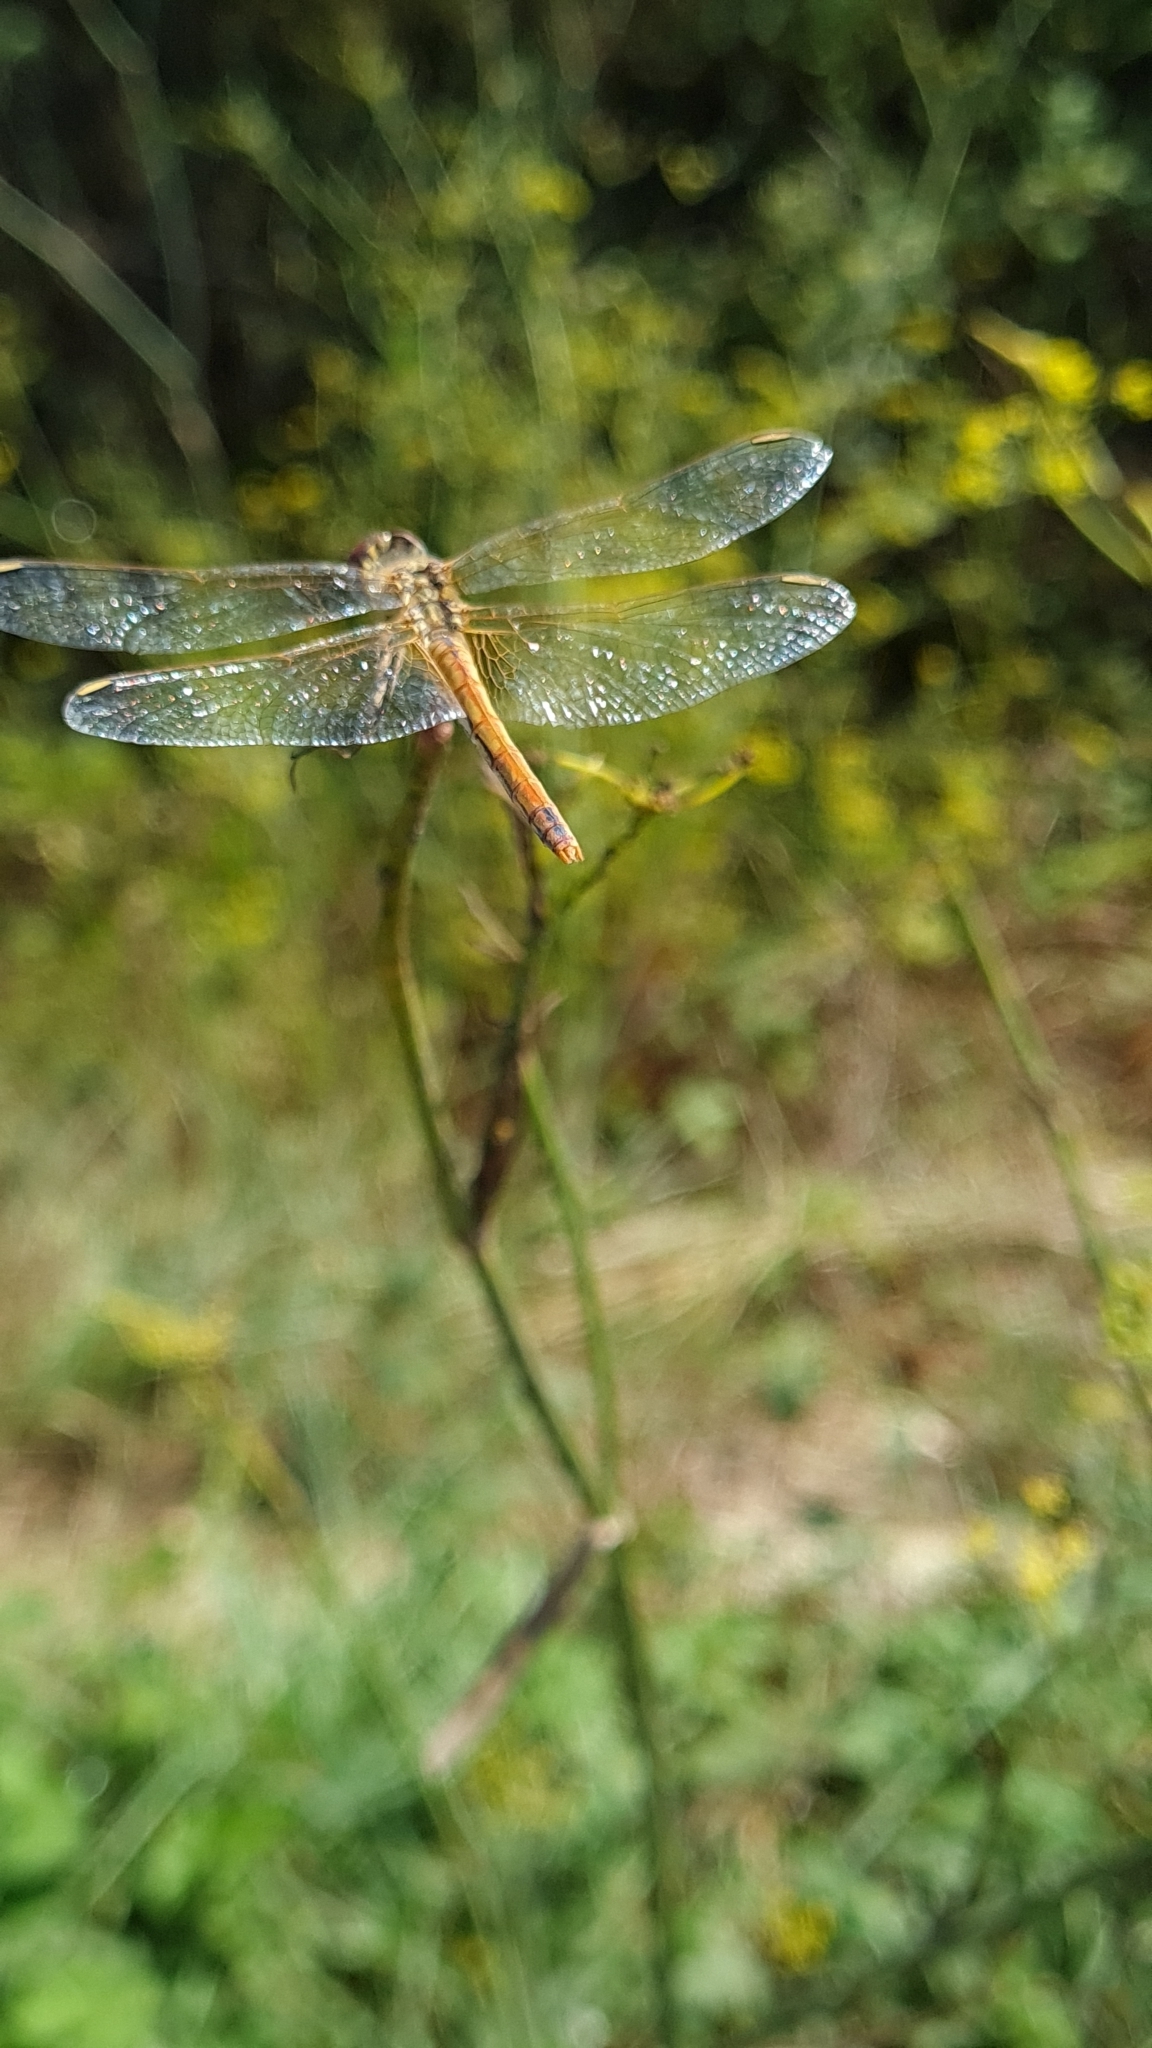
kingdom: Animalia
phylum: Arthropoda
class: Insecta
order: Odonata
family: Libellulidae
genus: Sympetrum
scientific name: Sympetrum fonscolombii
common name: Red-veined darter
